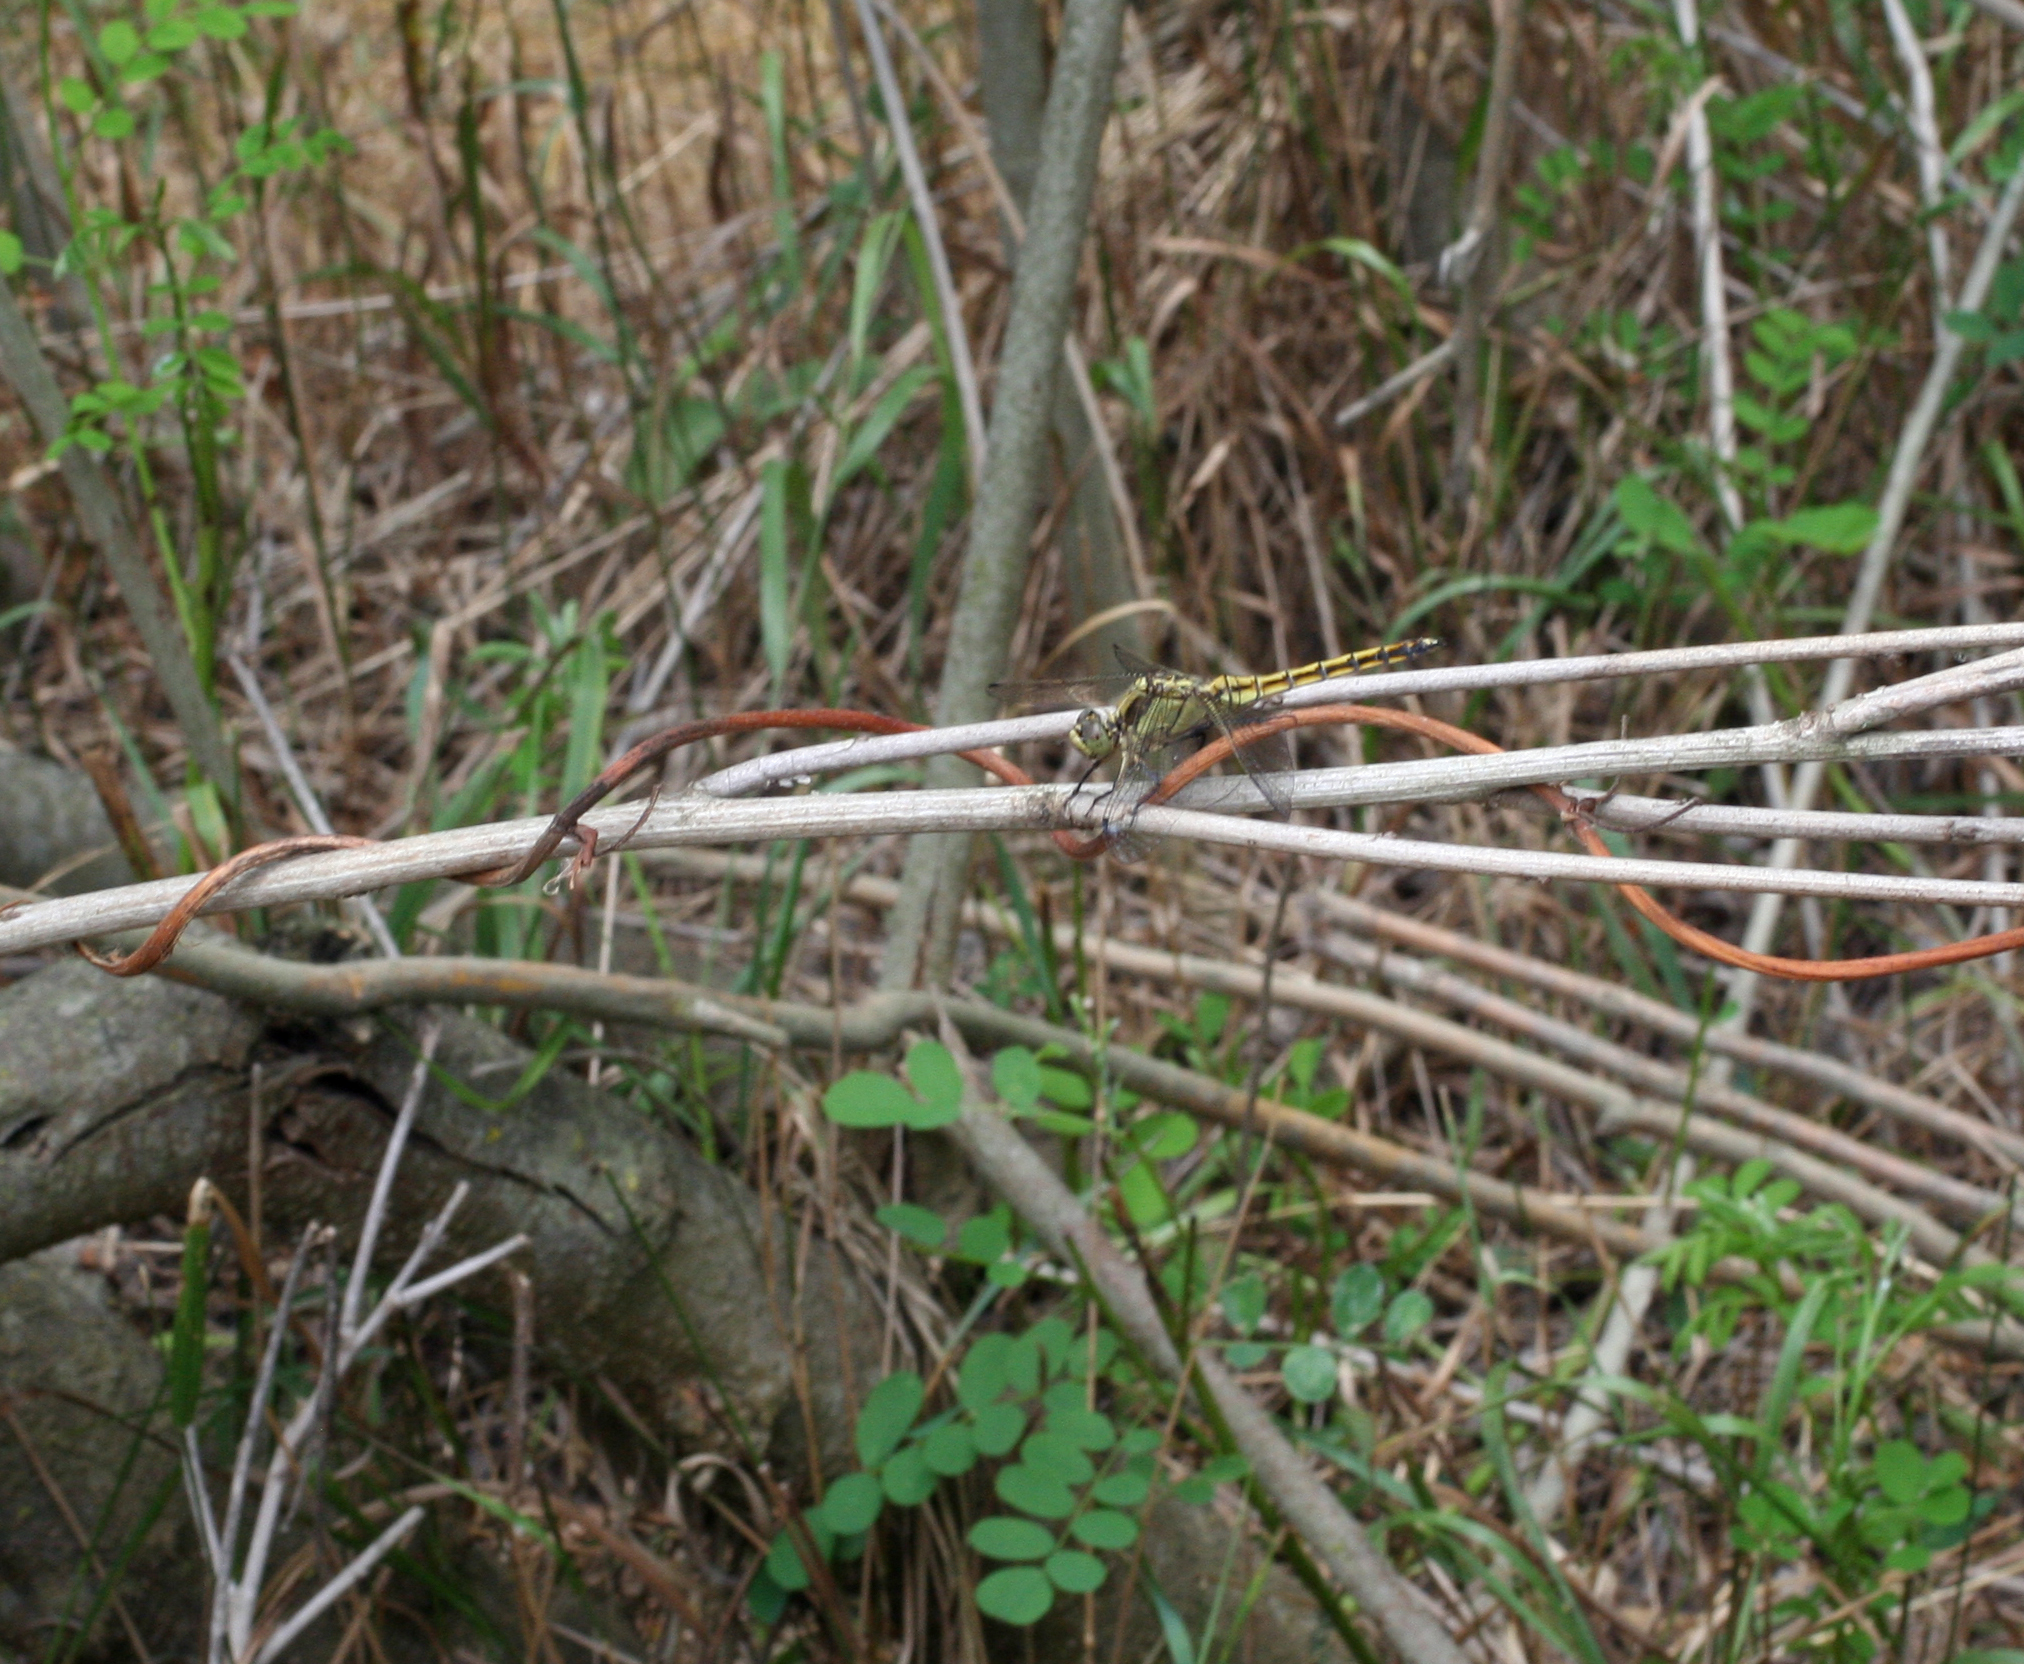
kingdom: Animalia
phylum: Arthropoda
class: Insecta
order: Odonata
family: Libellulidae
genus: Orthetrum
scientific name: Orthetrum cancellatum
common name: Black-tailed skimmer
